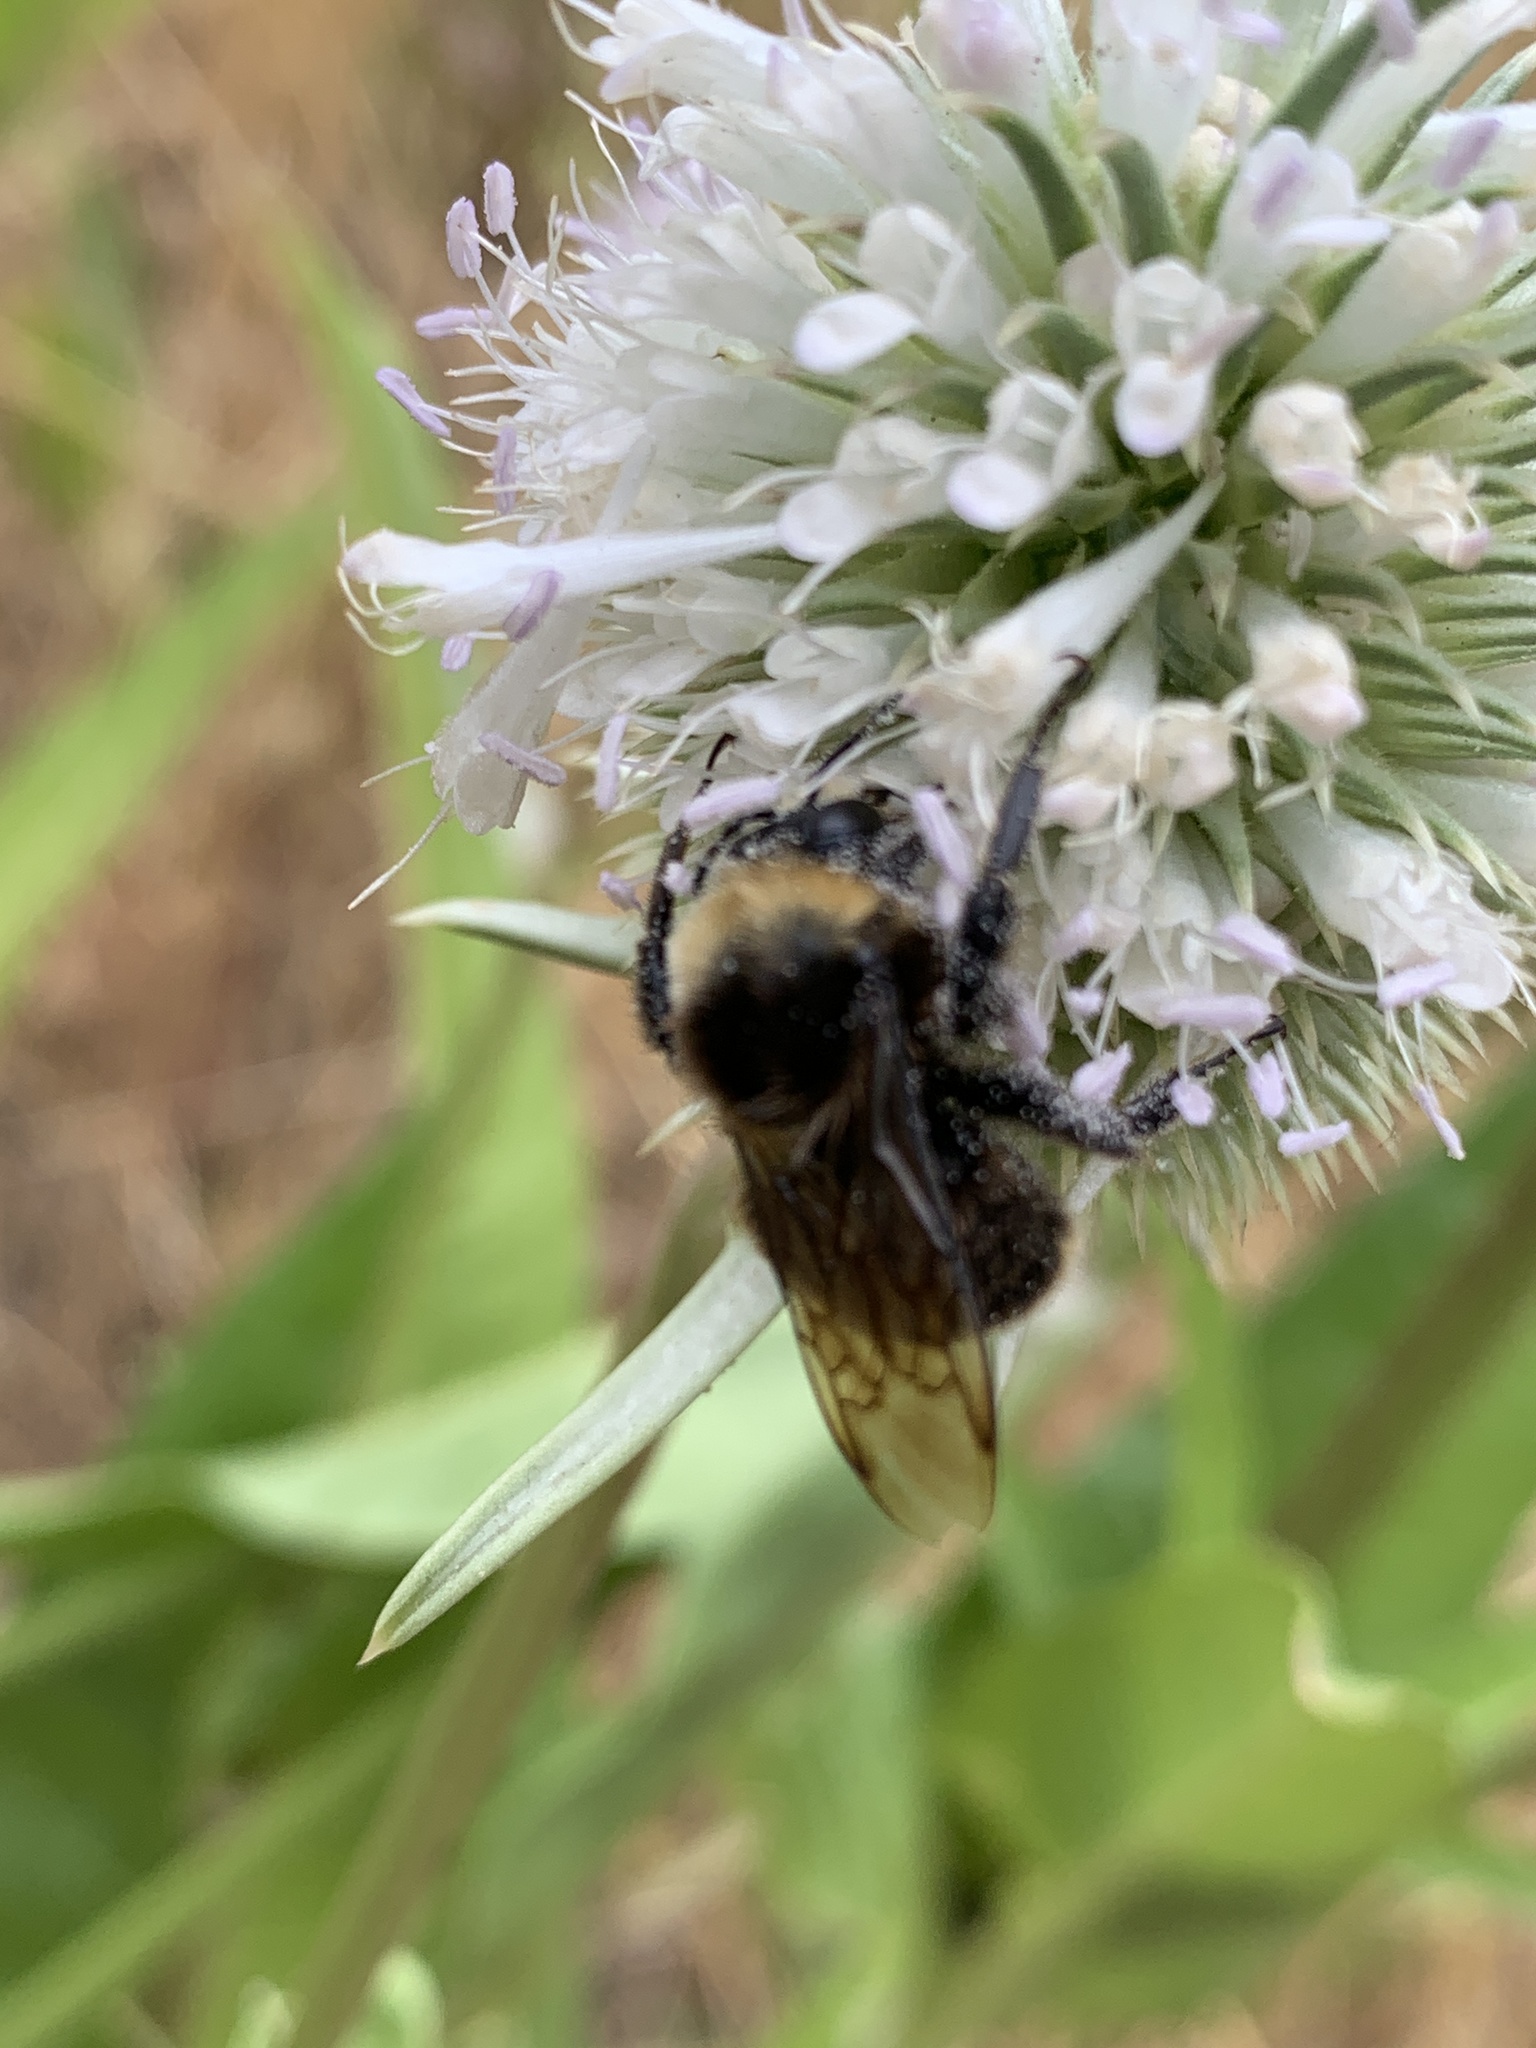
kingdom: Animalia
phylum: Arthropoda
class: Insecta
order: Hymenoptera
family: Apidae
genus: Bombus
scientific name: Bombus vosnesenskii
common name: Vosnesensky bumble bee
